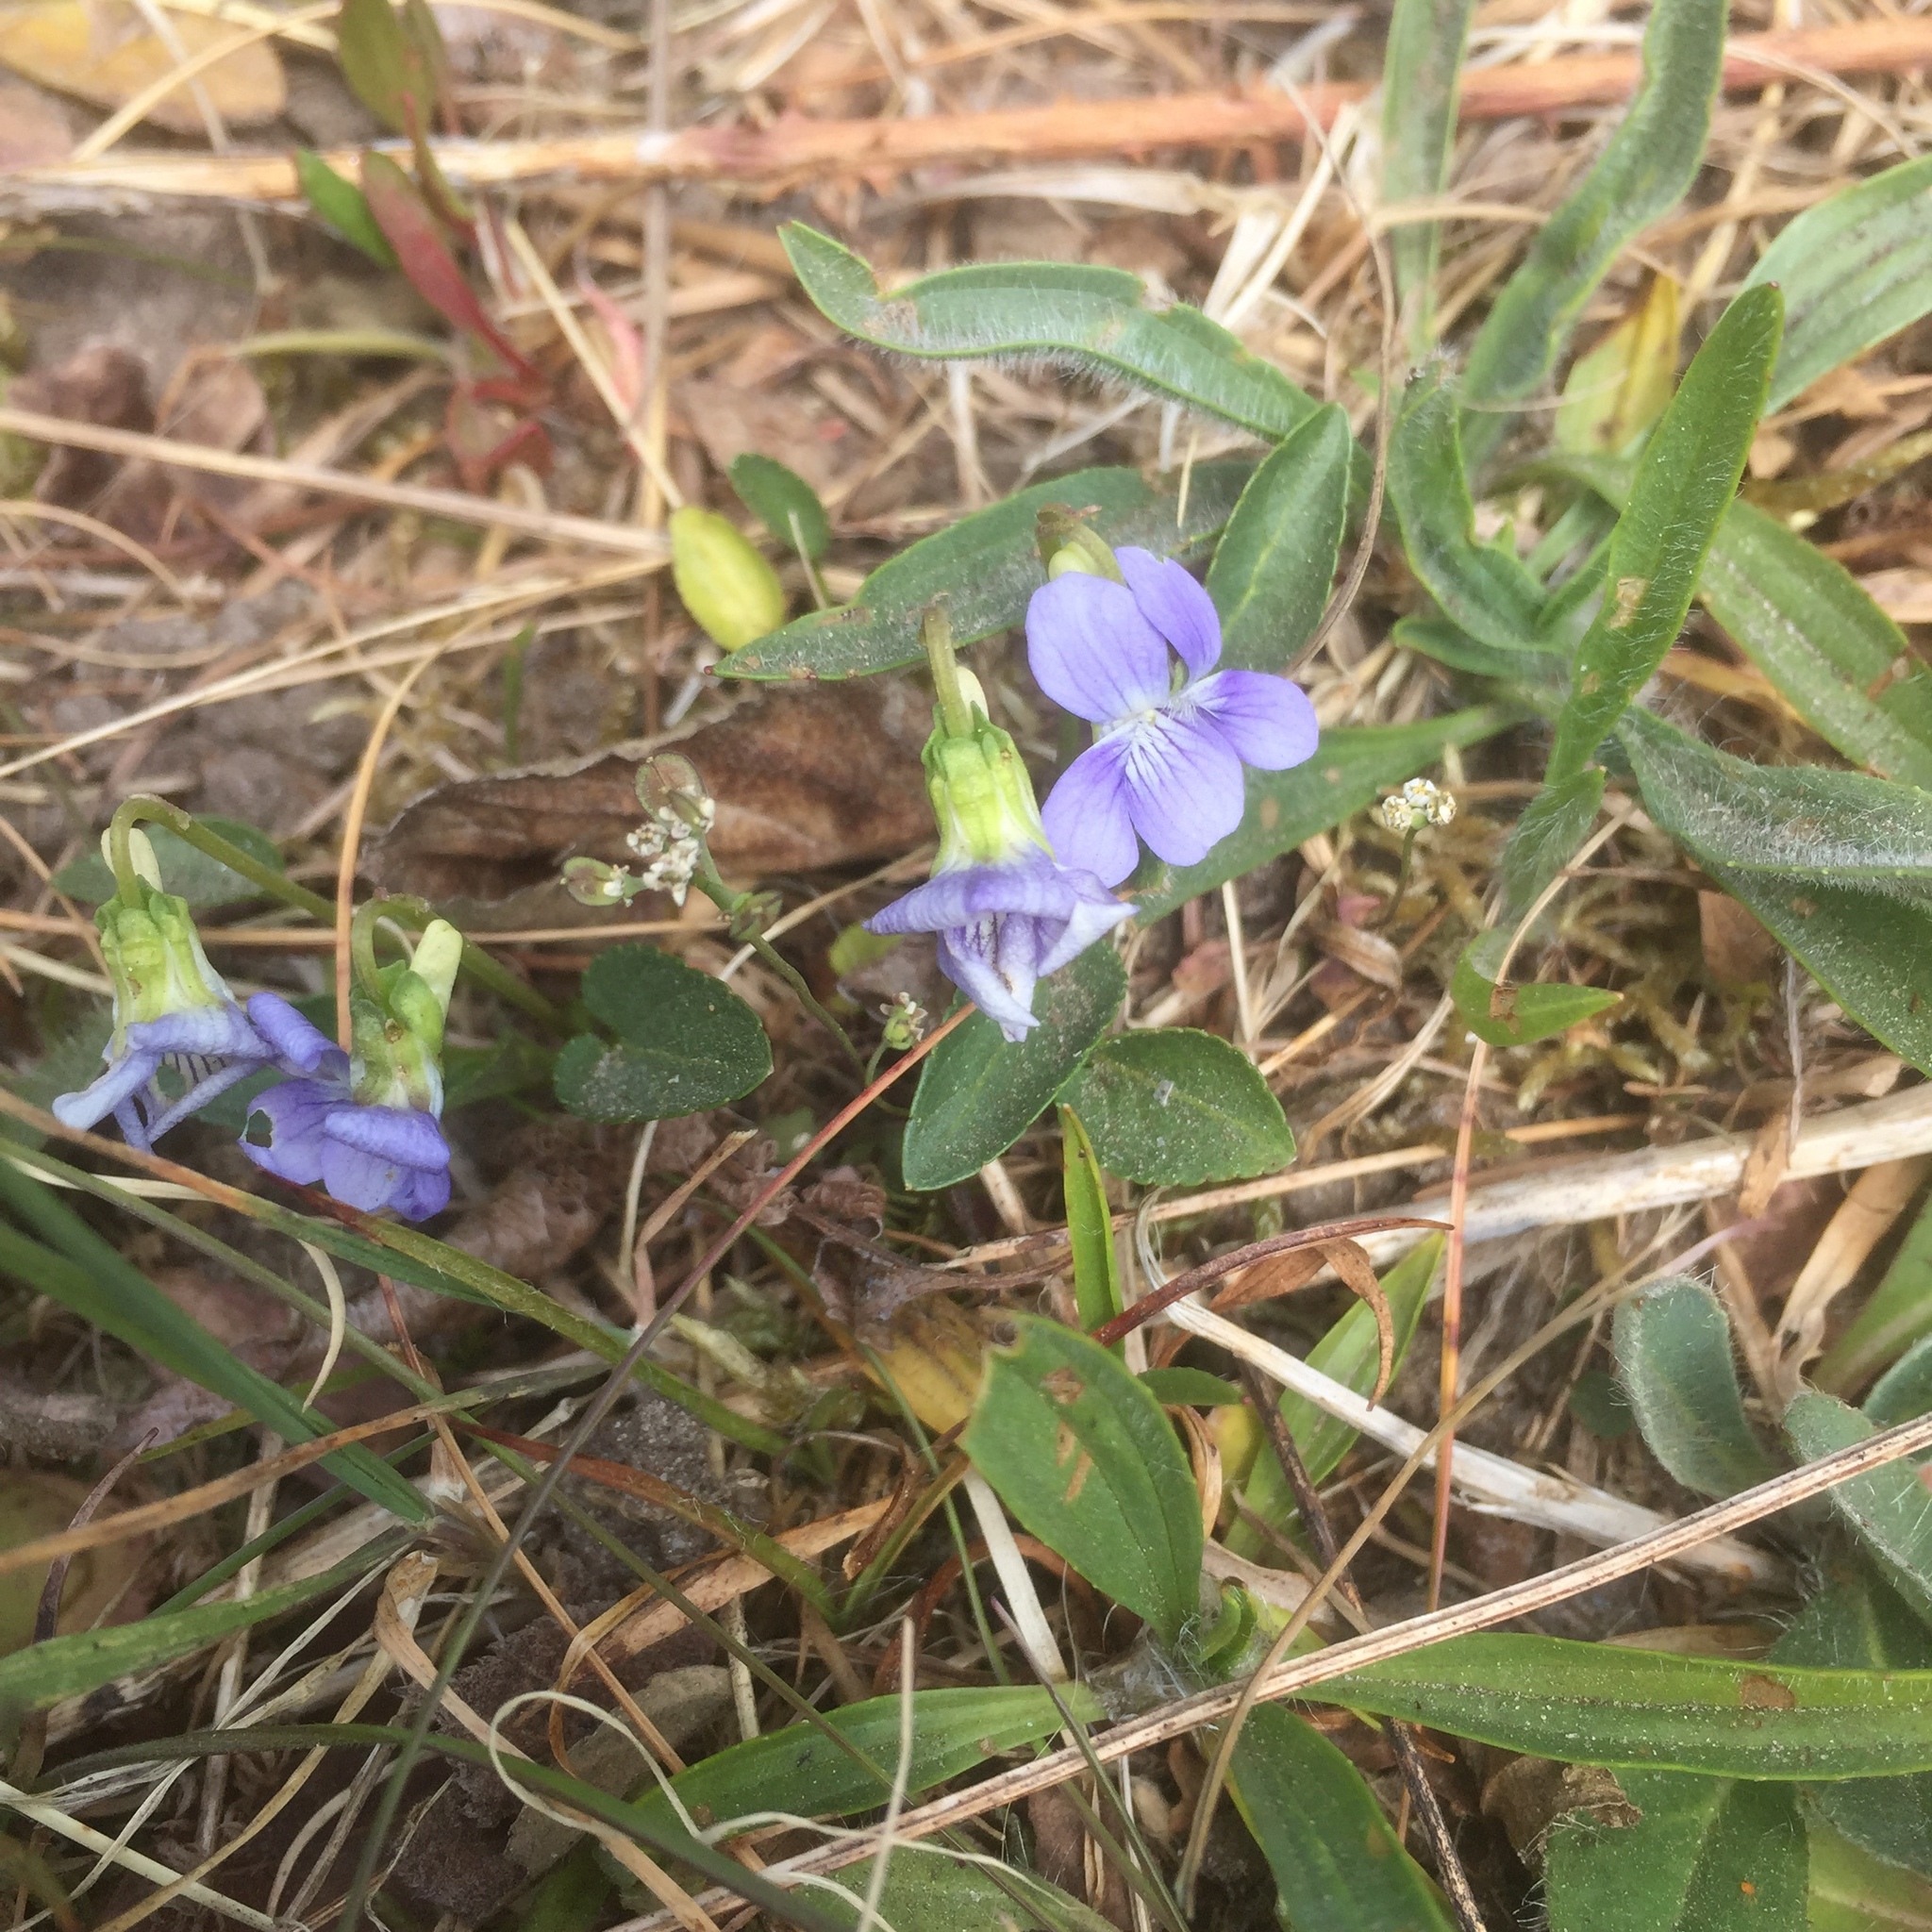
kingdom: Plantae
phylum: Tracheophyta
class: Magnoliopsida
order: Malpighiales
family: Violaceae
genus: Viola
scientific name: Viola canina
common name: Heath dog-violet
